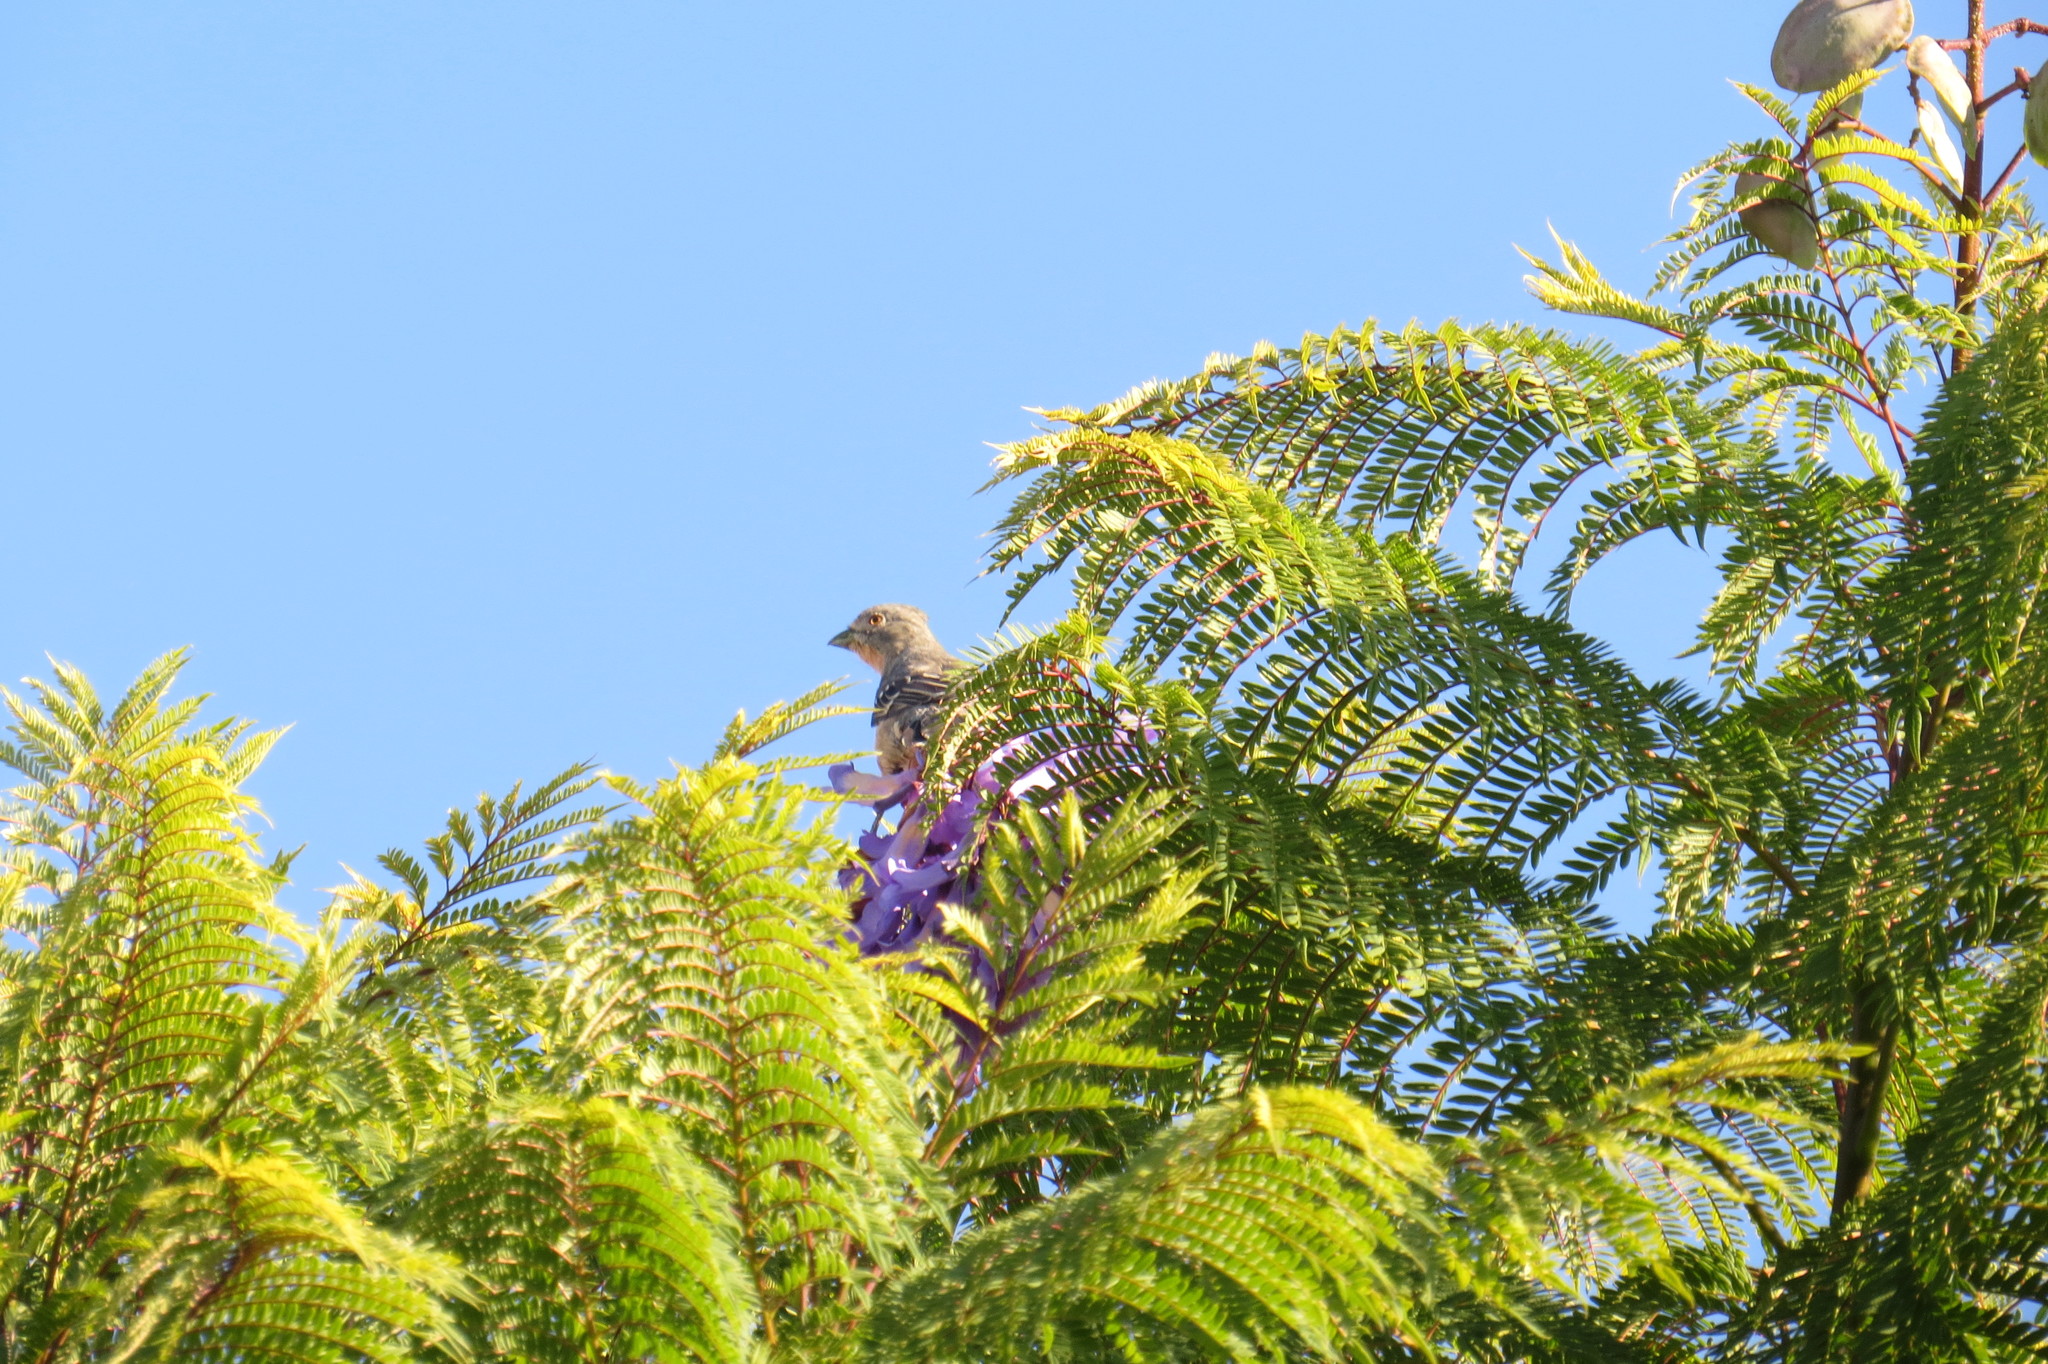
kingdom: Animalia
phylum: Chordata
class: Aves
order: Passeriformes
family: Cotingidae
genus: Phytotoma
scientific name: Phytotoma rutila
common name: White-tipped plantcutter
